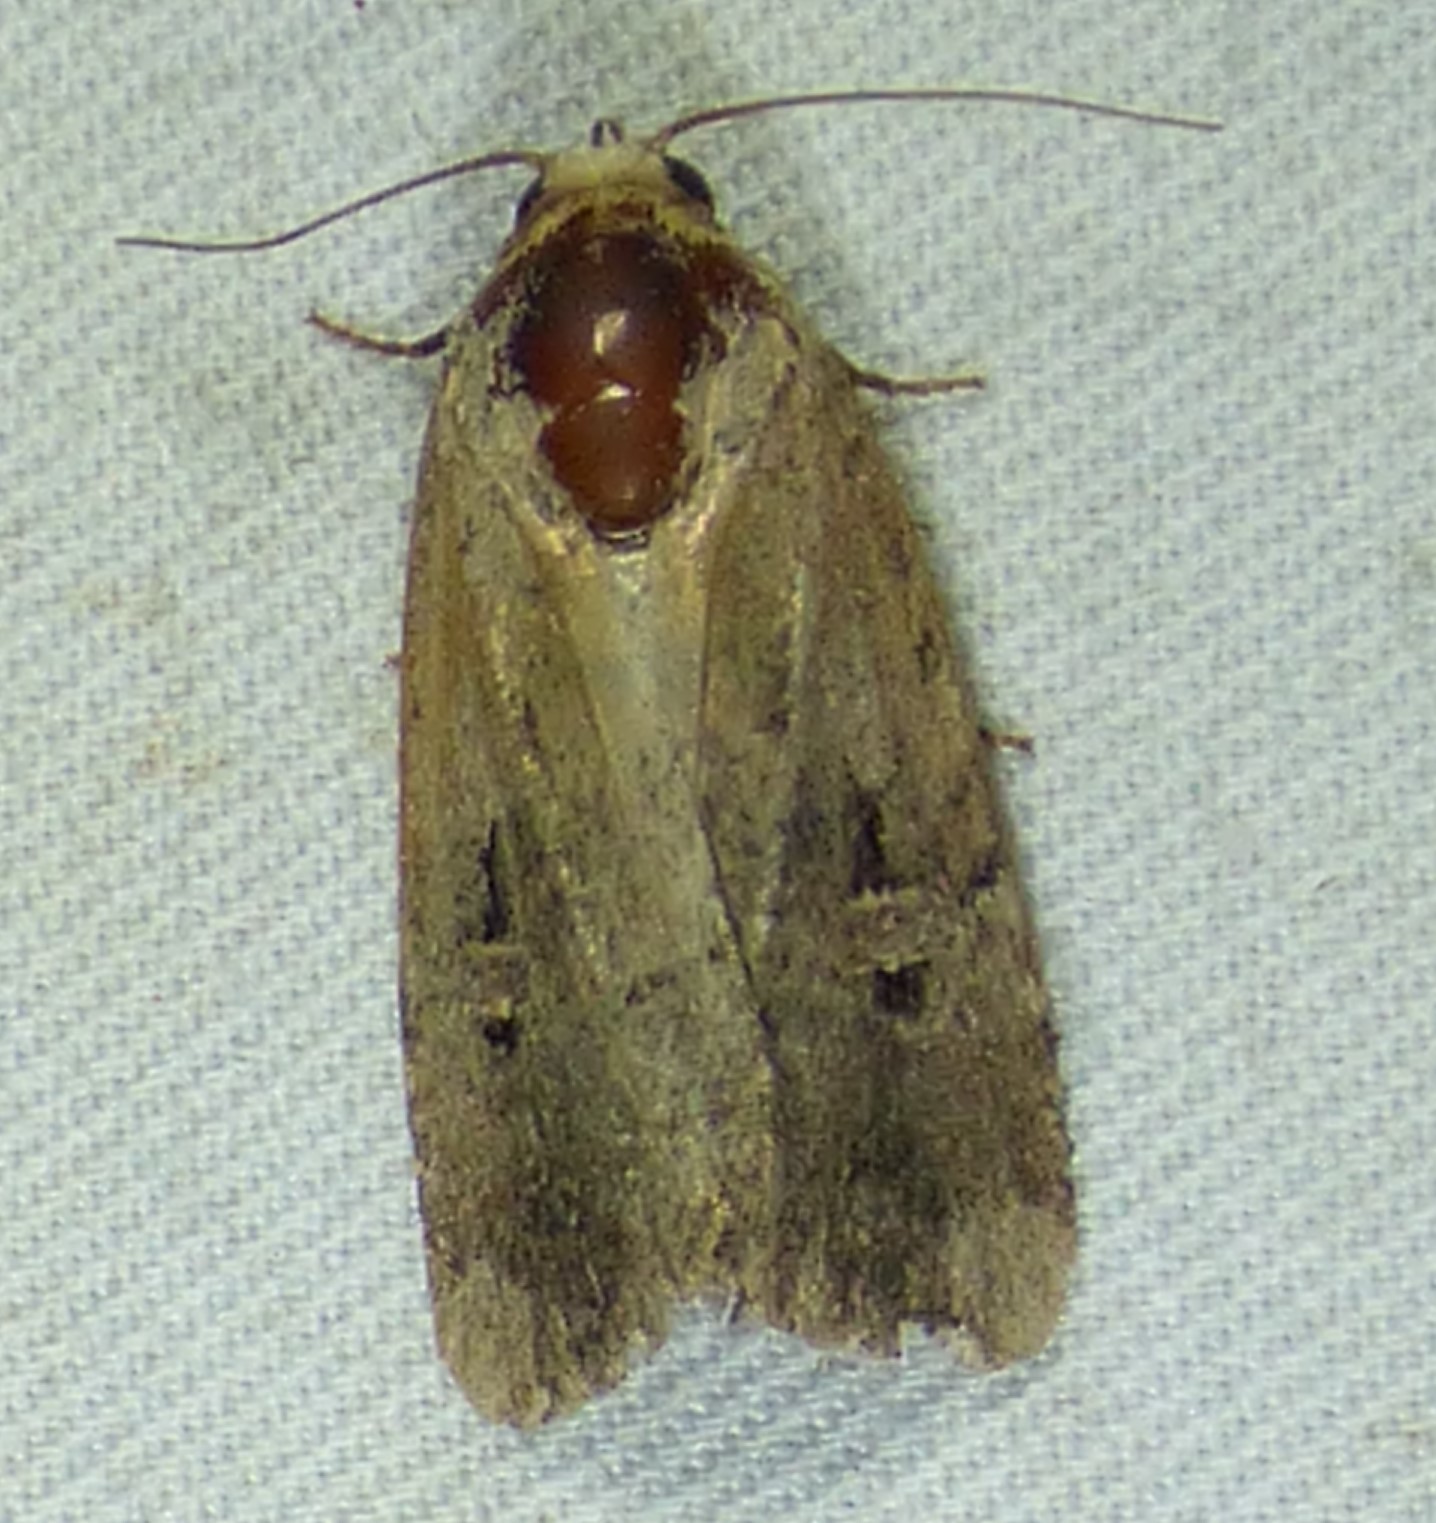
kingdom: Animalia
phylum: Arthropoda
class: Insecta
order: Lepidoptera
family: Noctuidae
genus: Elaphria
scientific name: Elaphria chalcedonia
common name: Chalcedony midget
